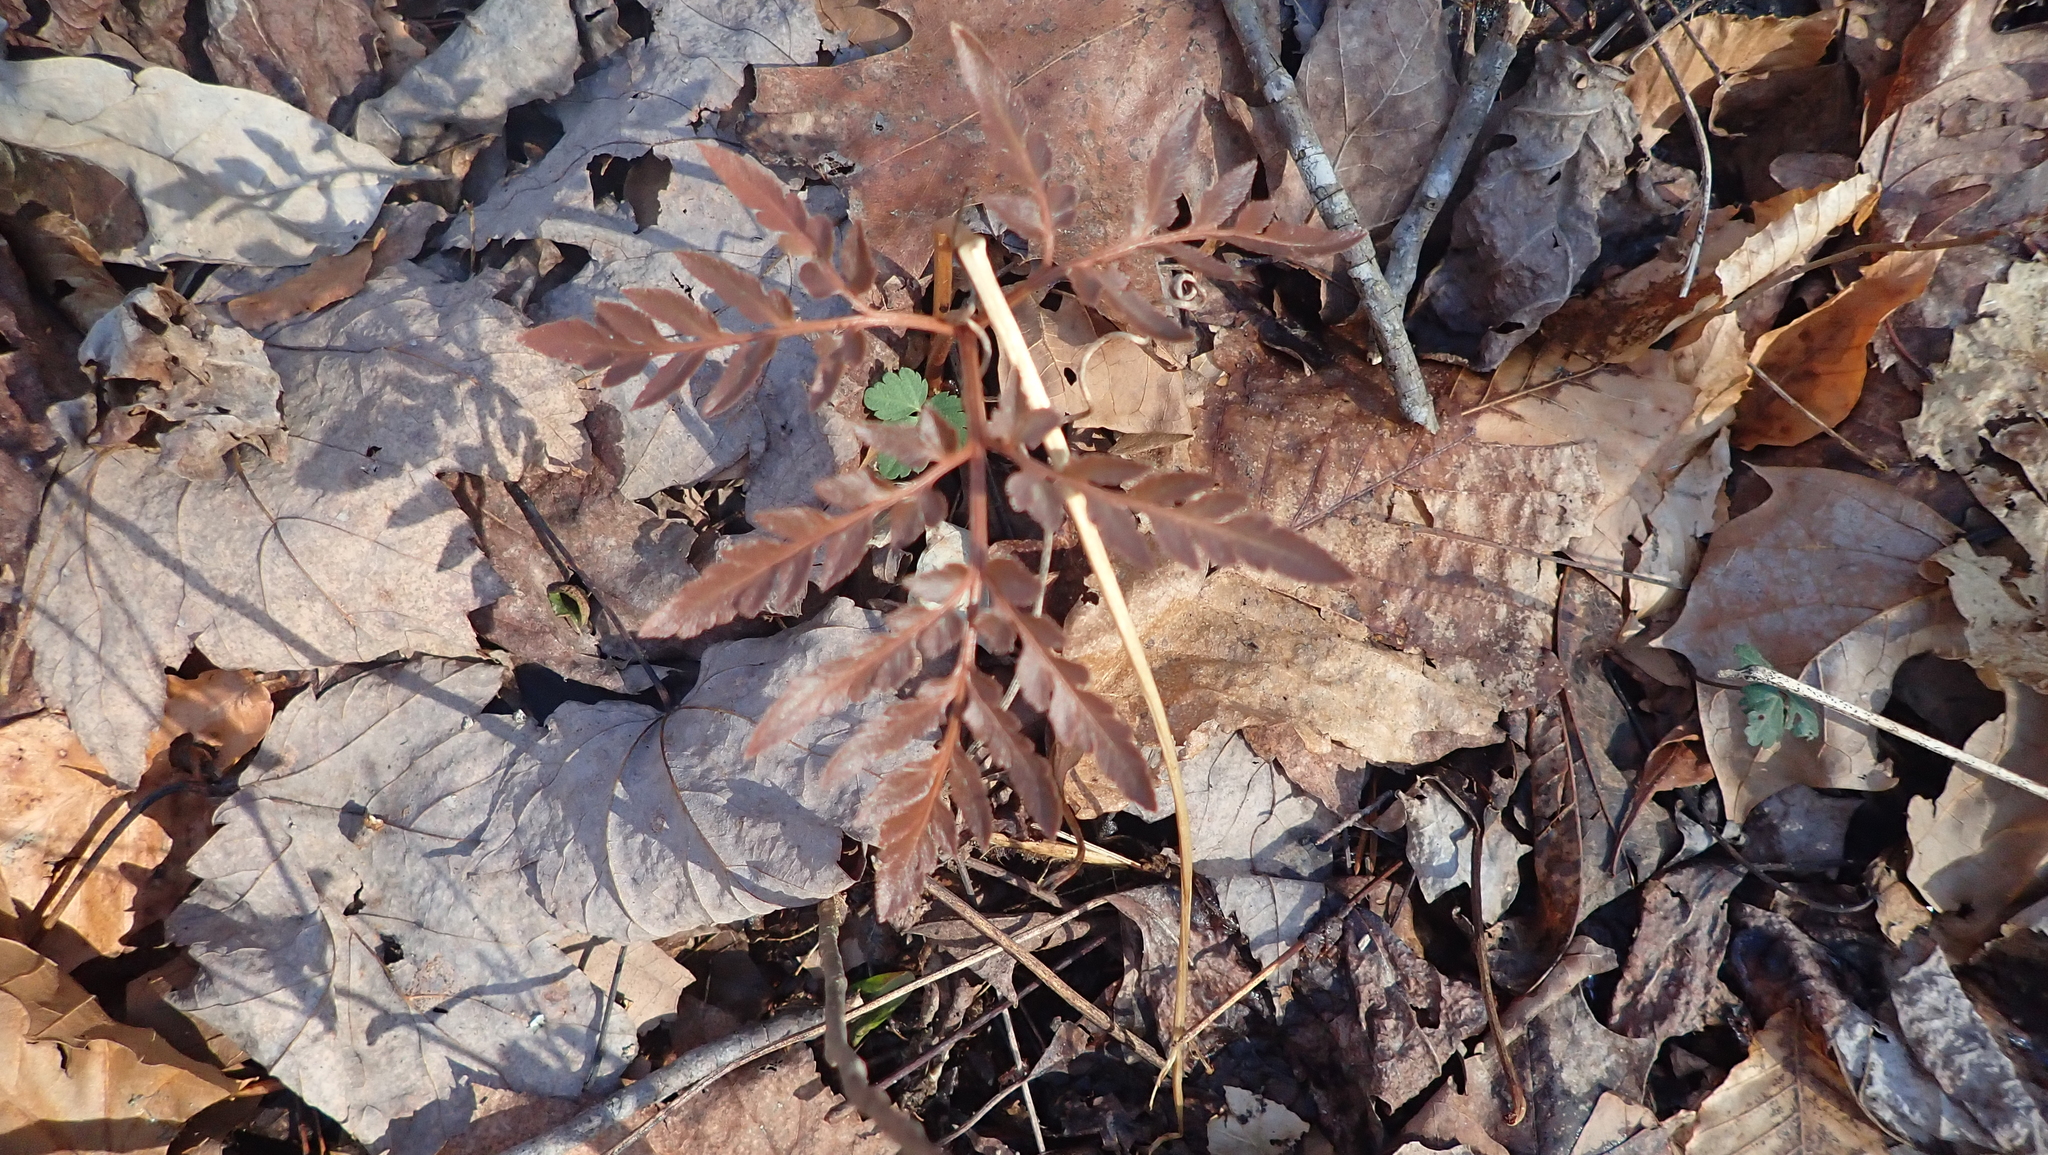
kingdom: Plantae
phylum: Tracheophyta
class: Polypodiopsida
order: Ophioglossales
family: Ophioglossaceae
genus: Sceptridium
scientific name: Sceptridium dissectum
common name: Cut-leaved grapefern
